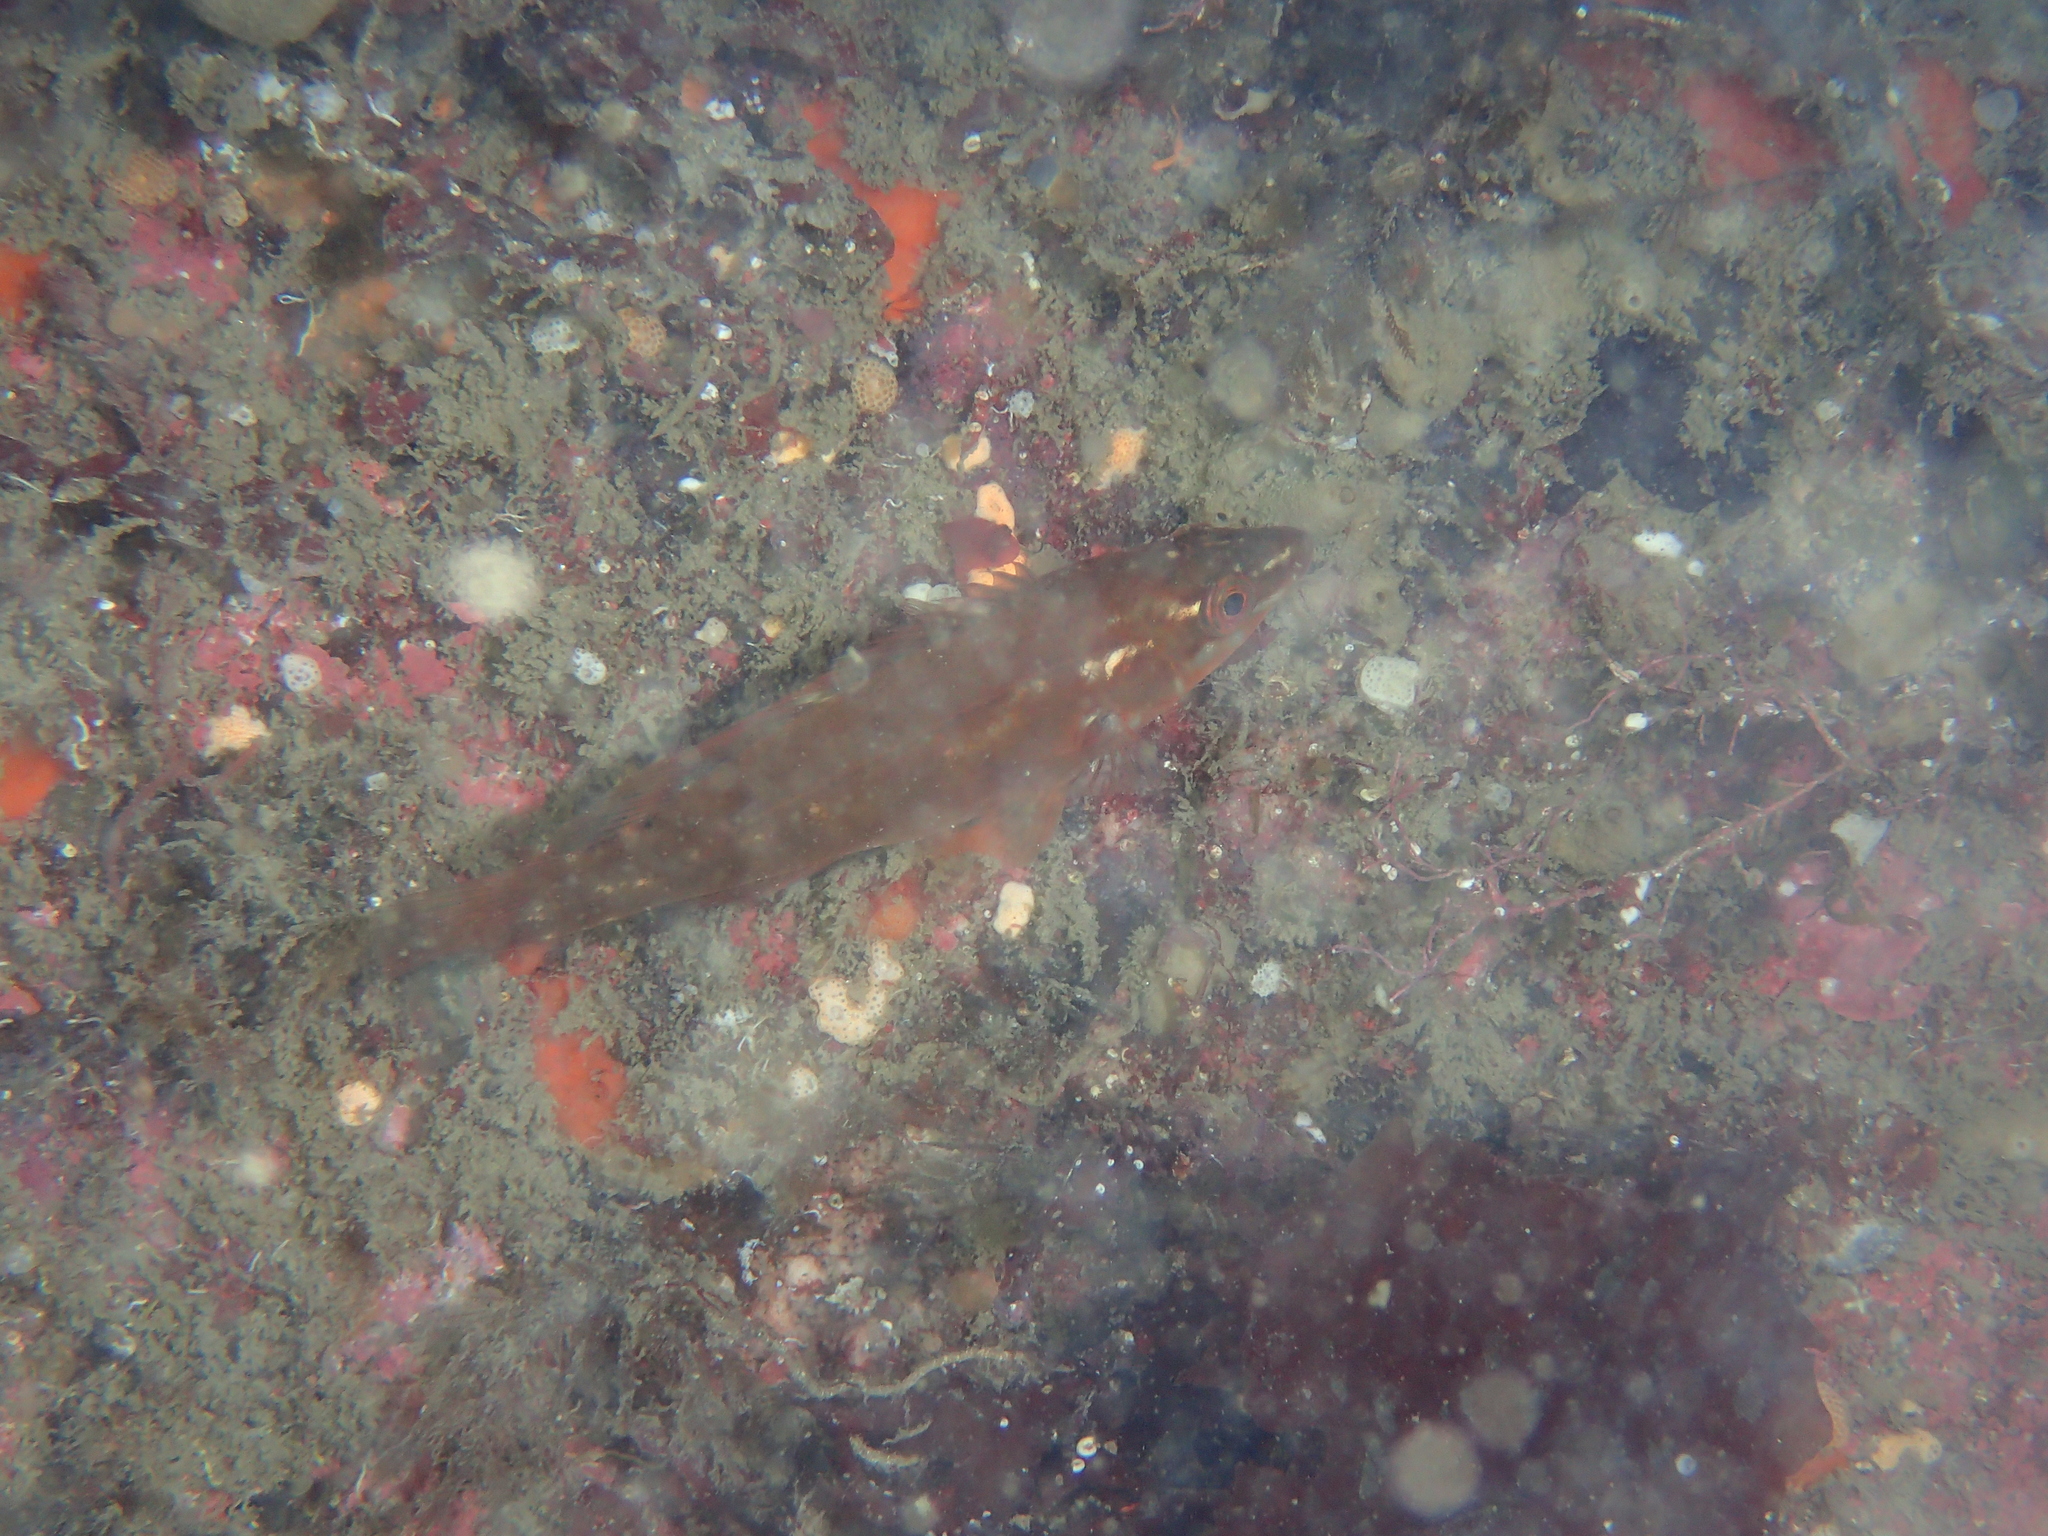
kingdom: Animalia
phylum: Chordata
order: Perciformes
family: Labridae
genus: Labrus
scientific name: Labrus bergylta
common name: Ballan wrasse
